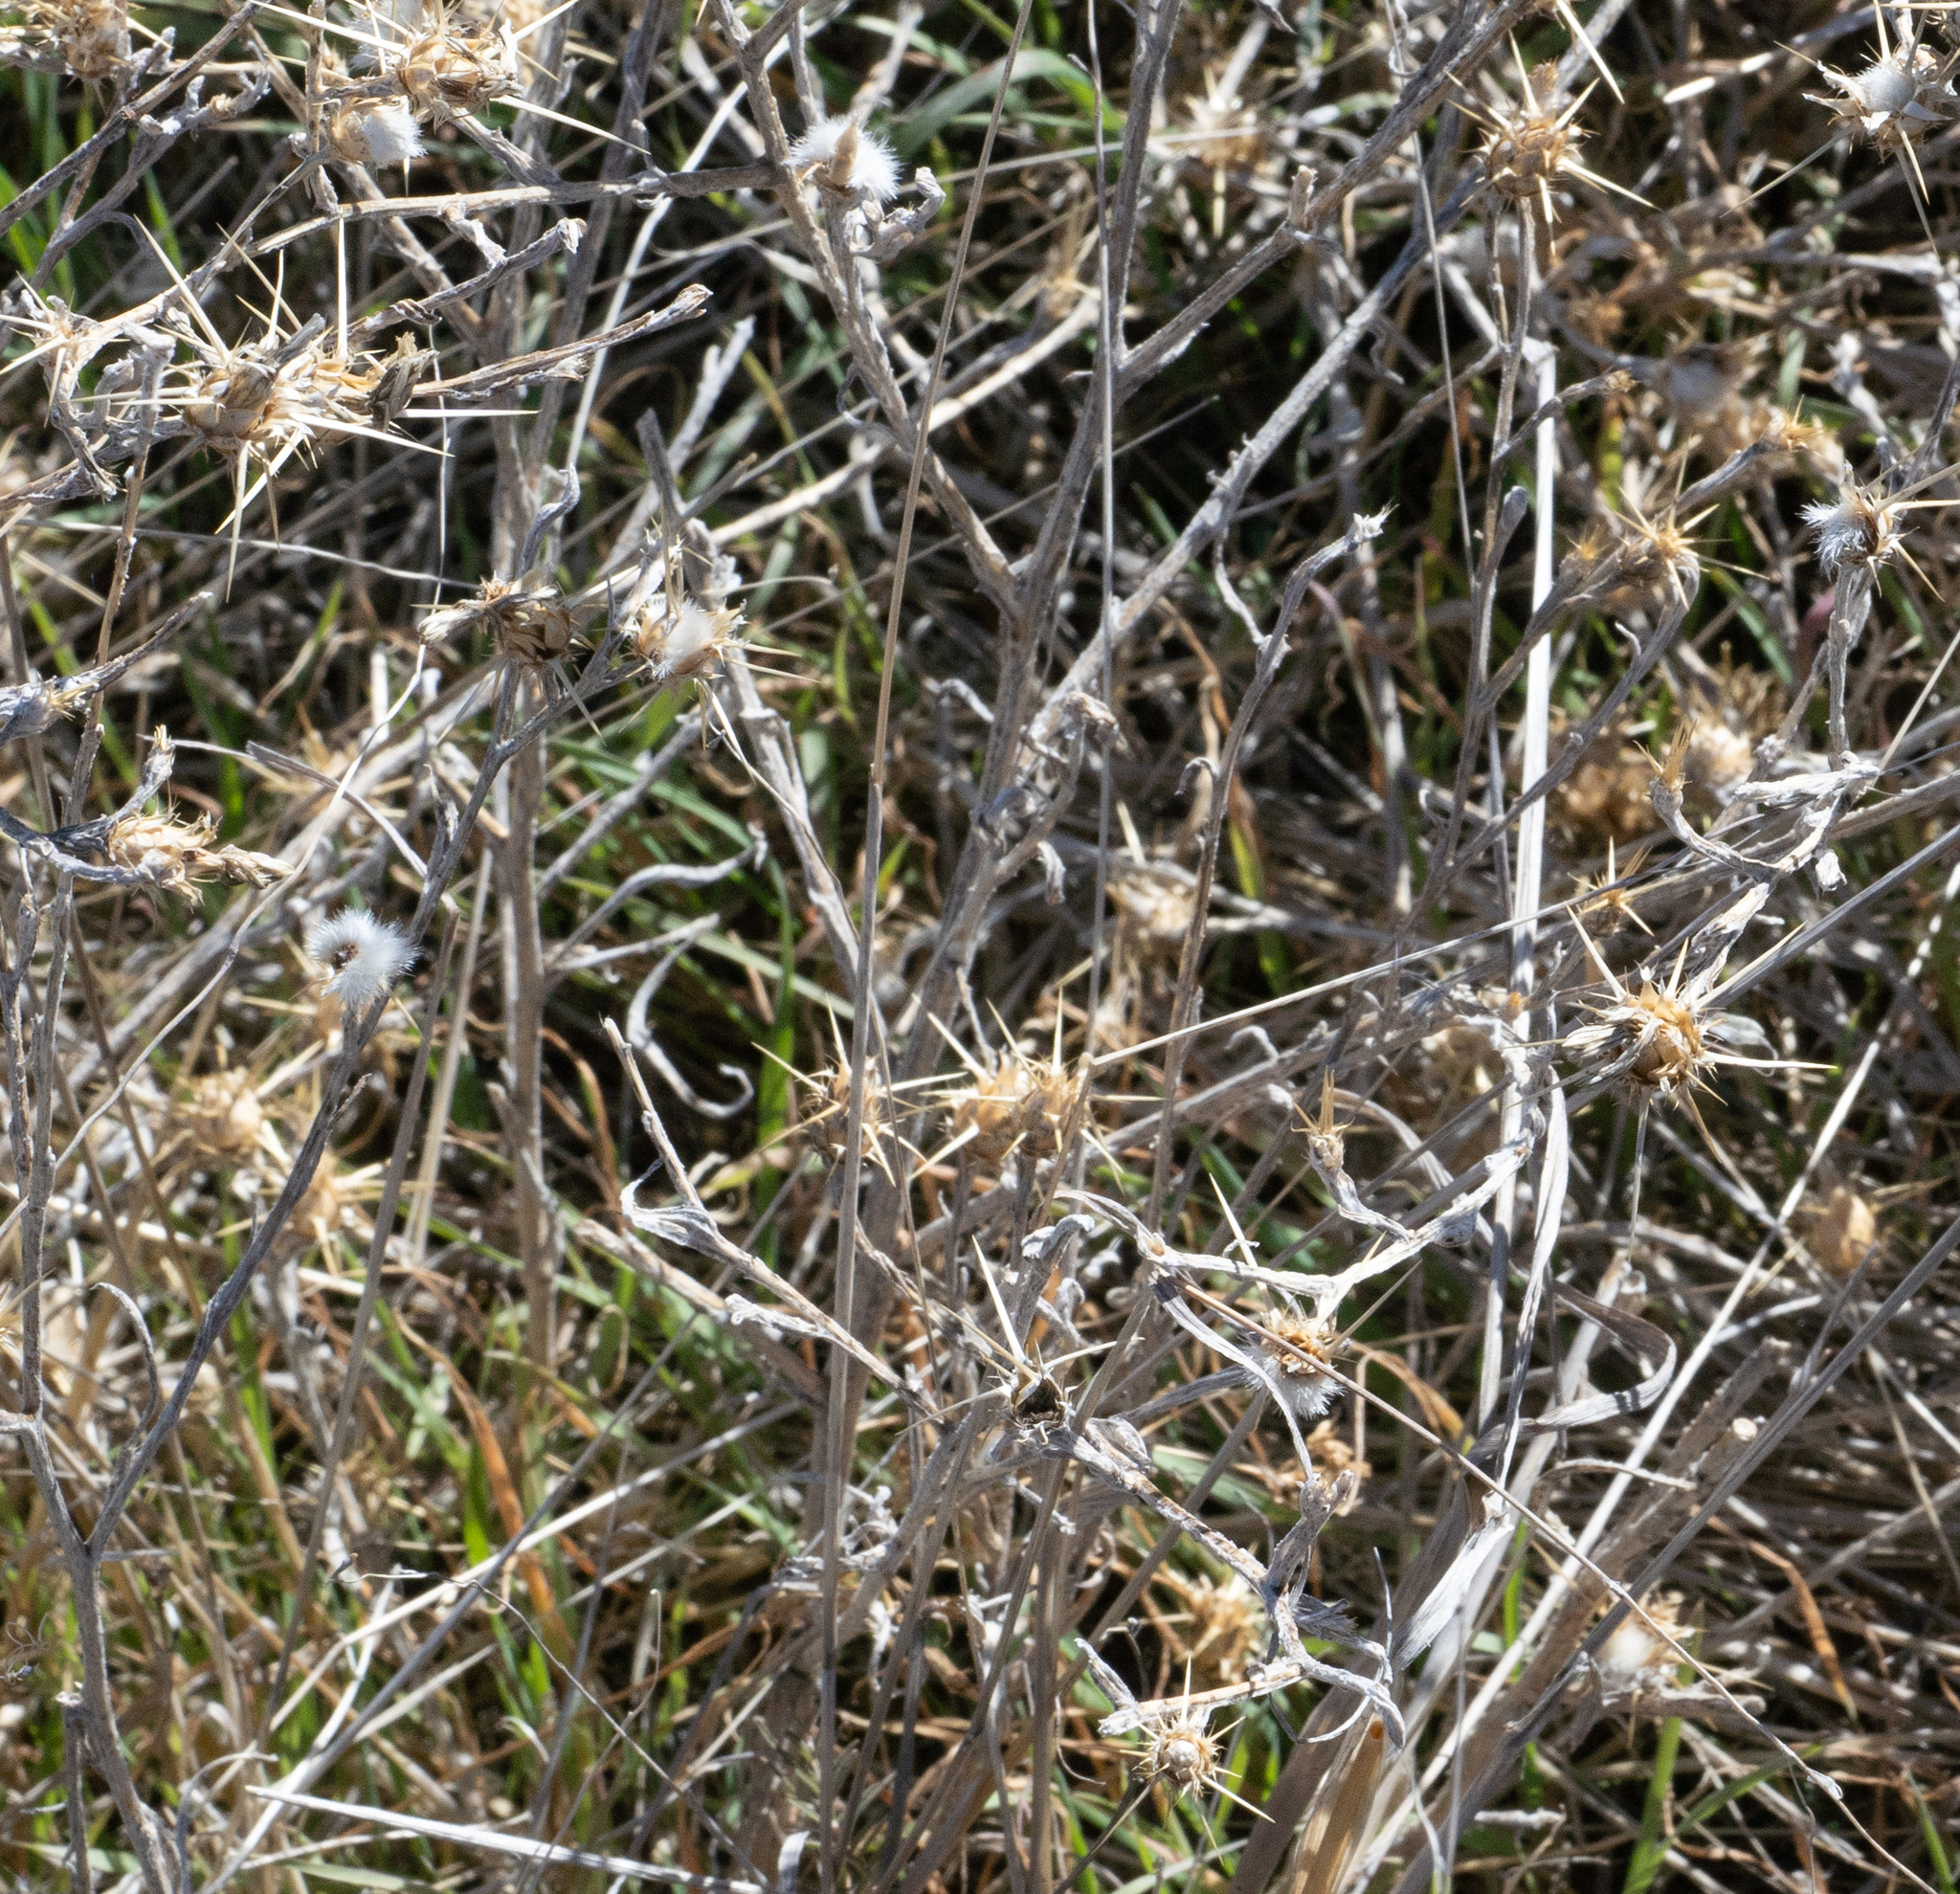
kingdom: Plantae
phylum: Tracheophyta
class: Magnoliopsida
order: Asterales
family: Asteraceae
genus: Centaurea
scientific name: Centaurea solstitialis
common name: Yellow star-thistle
